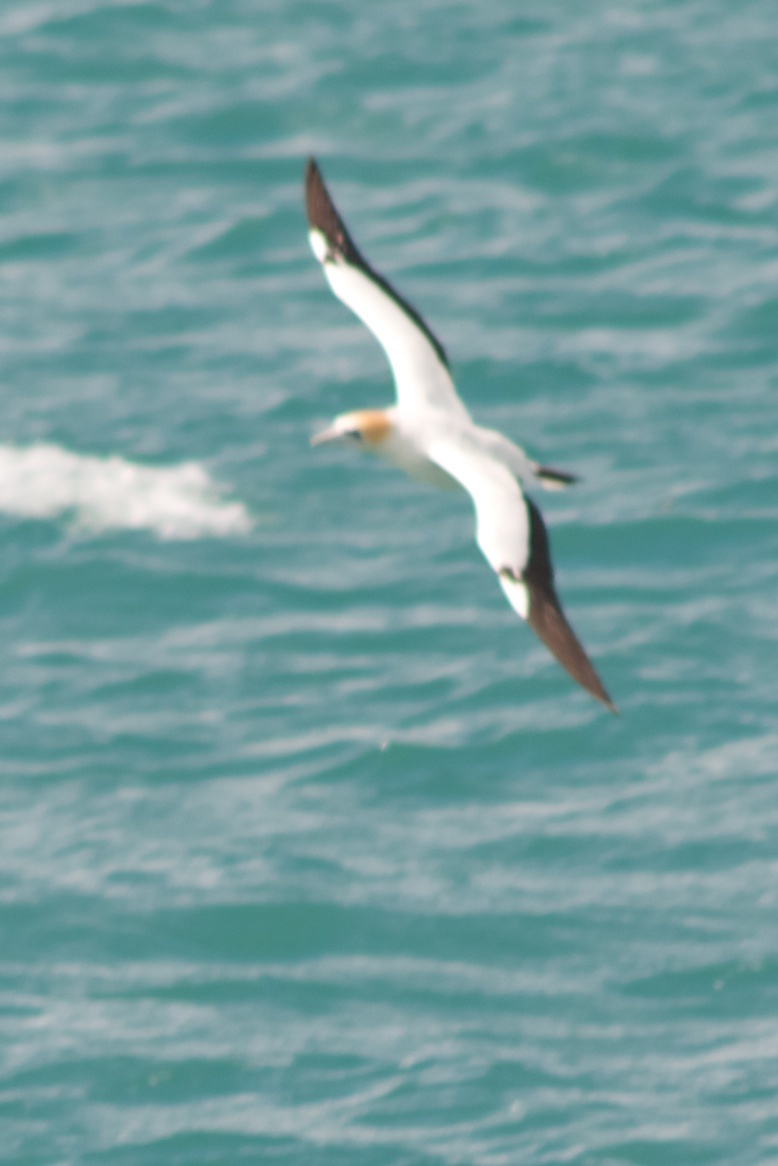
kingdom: Animalia
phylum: Chordata
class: Aves
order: Suliformes
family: Sulidae
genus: Morus
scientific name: Morus serrator
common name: Australasian gannet
